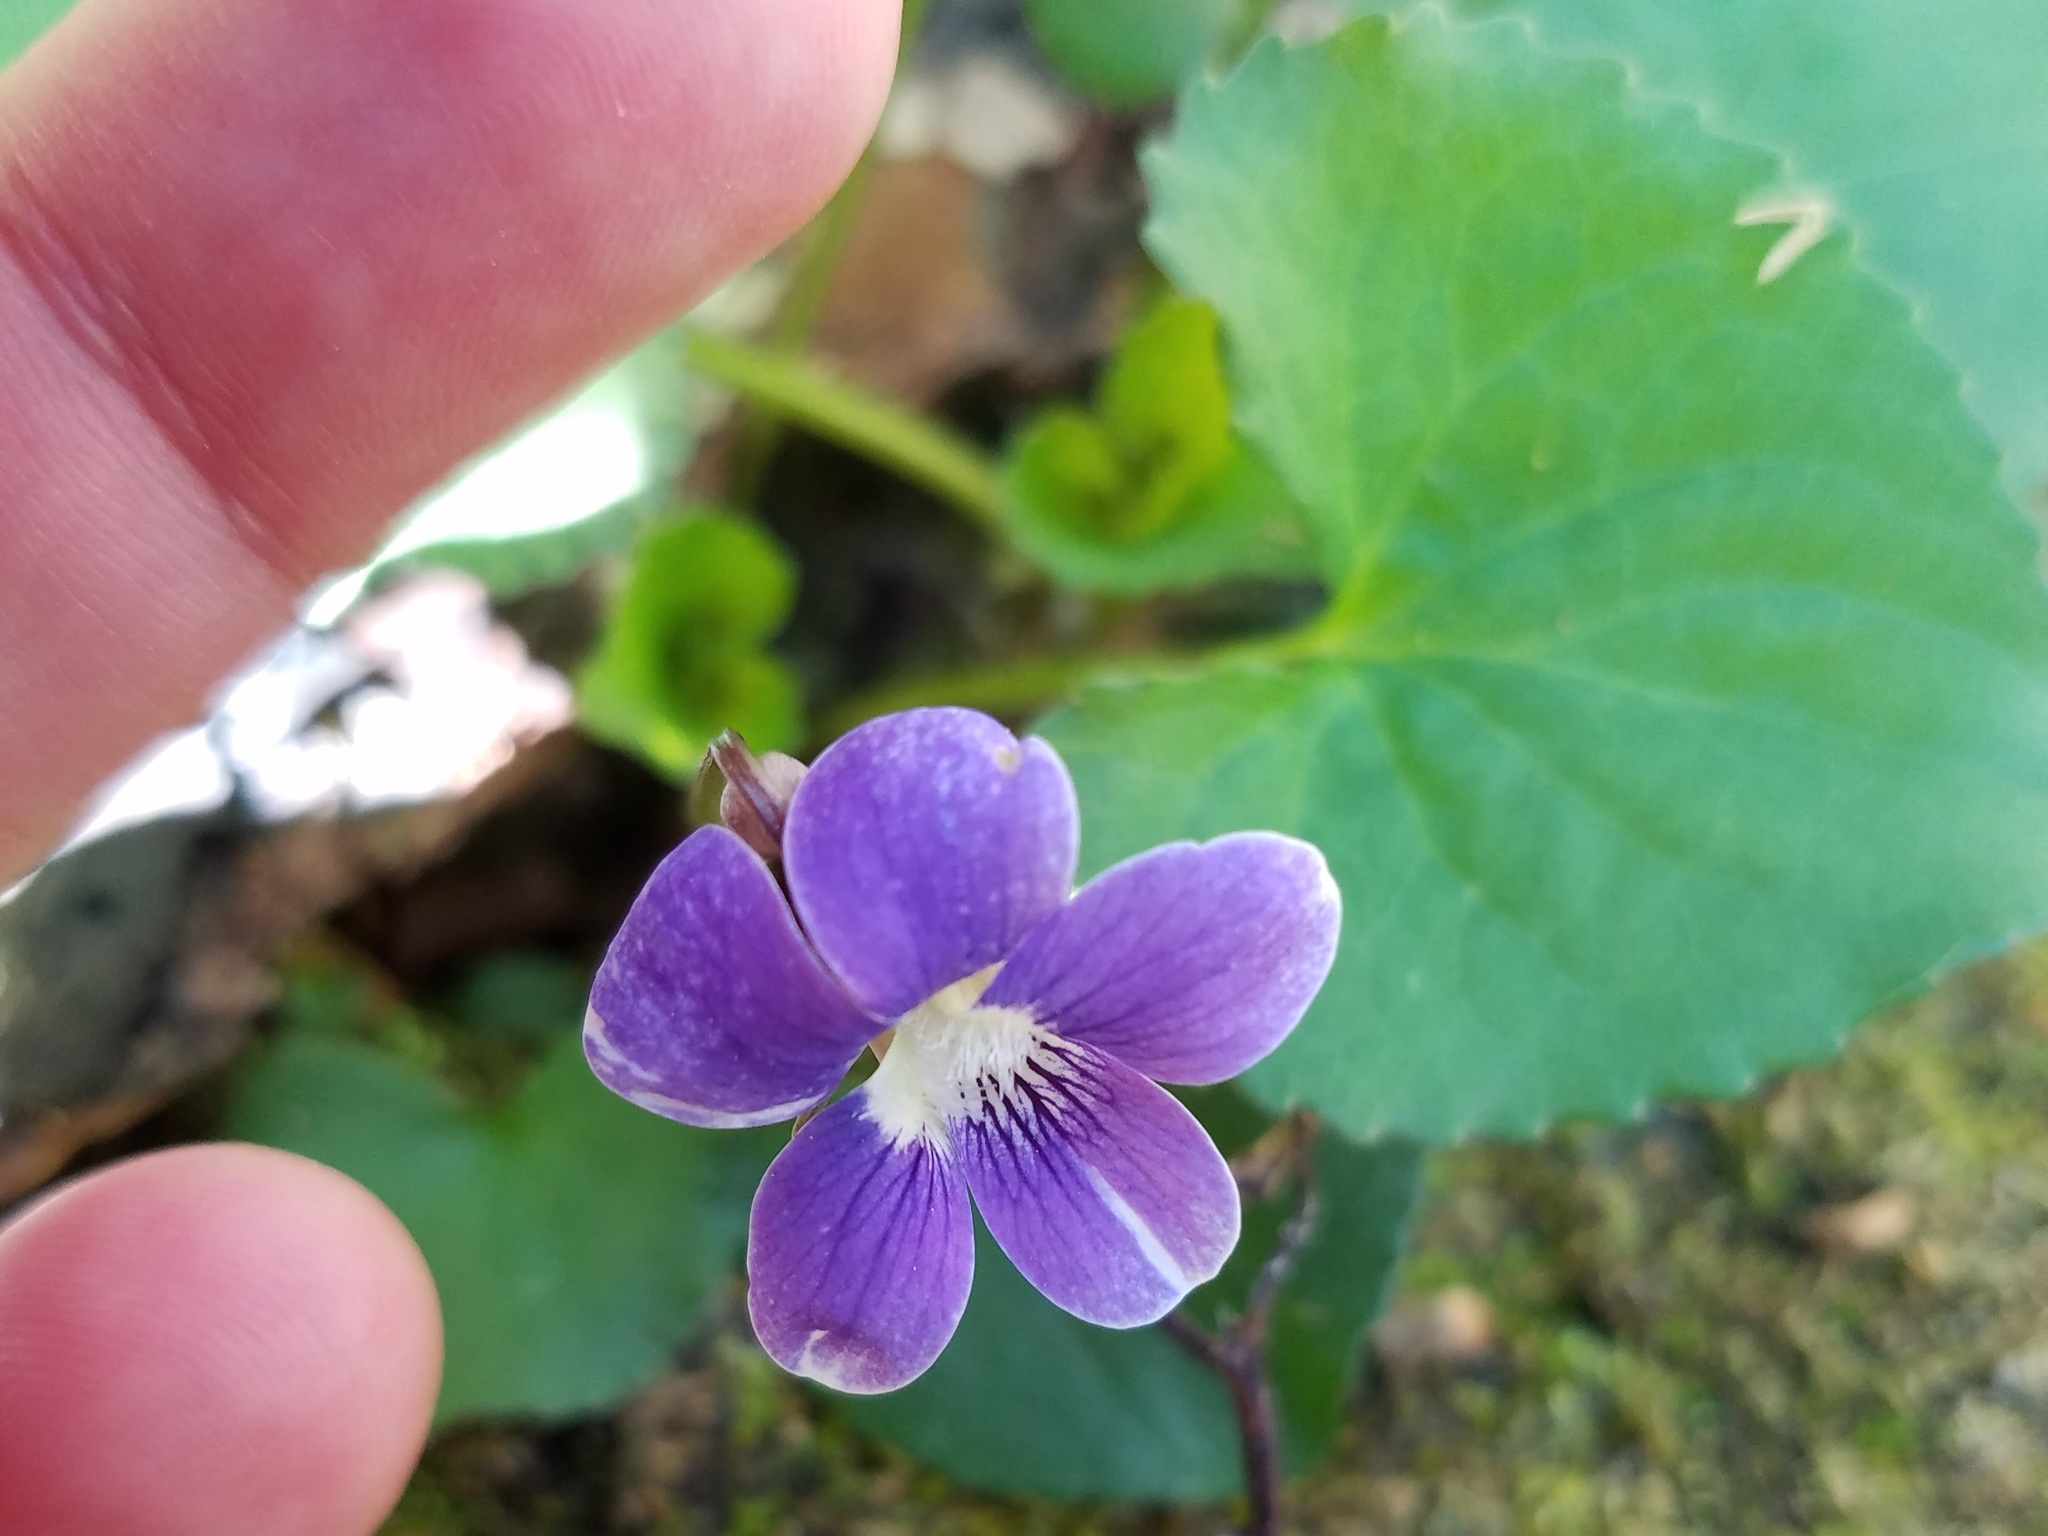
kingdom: Plantae
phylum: Tracheophyta
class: Magnoliopsida
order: Malpighiales
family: Violaceae
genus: Viola
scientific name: Viola sororia
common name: Dooryard violet
